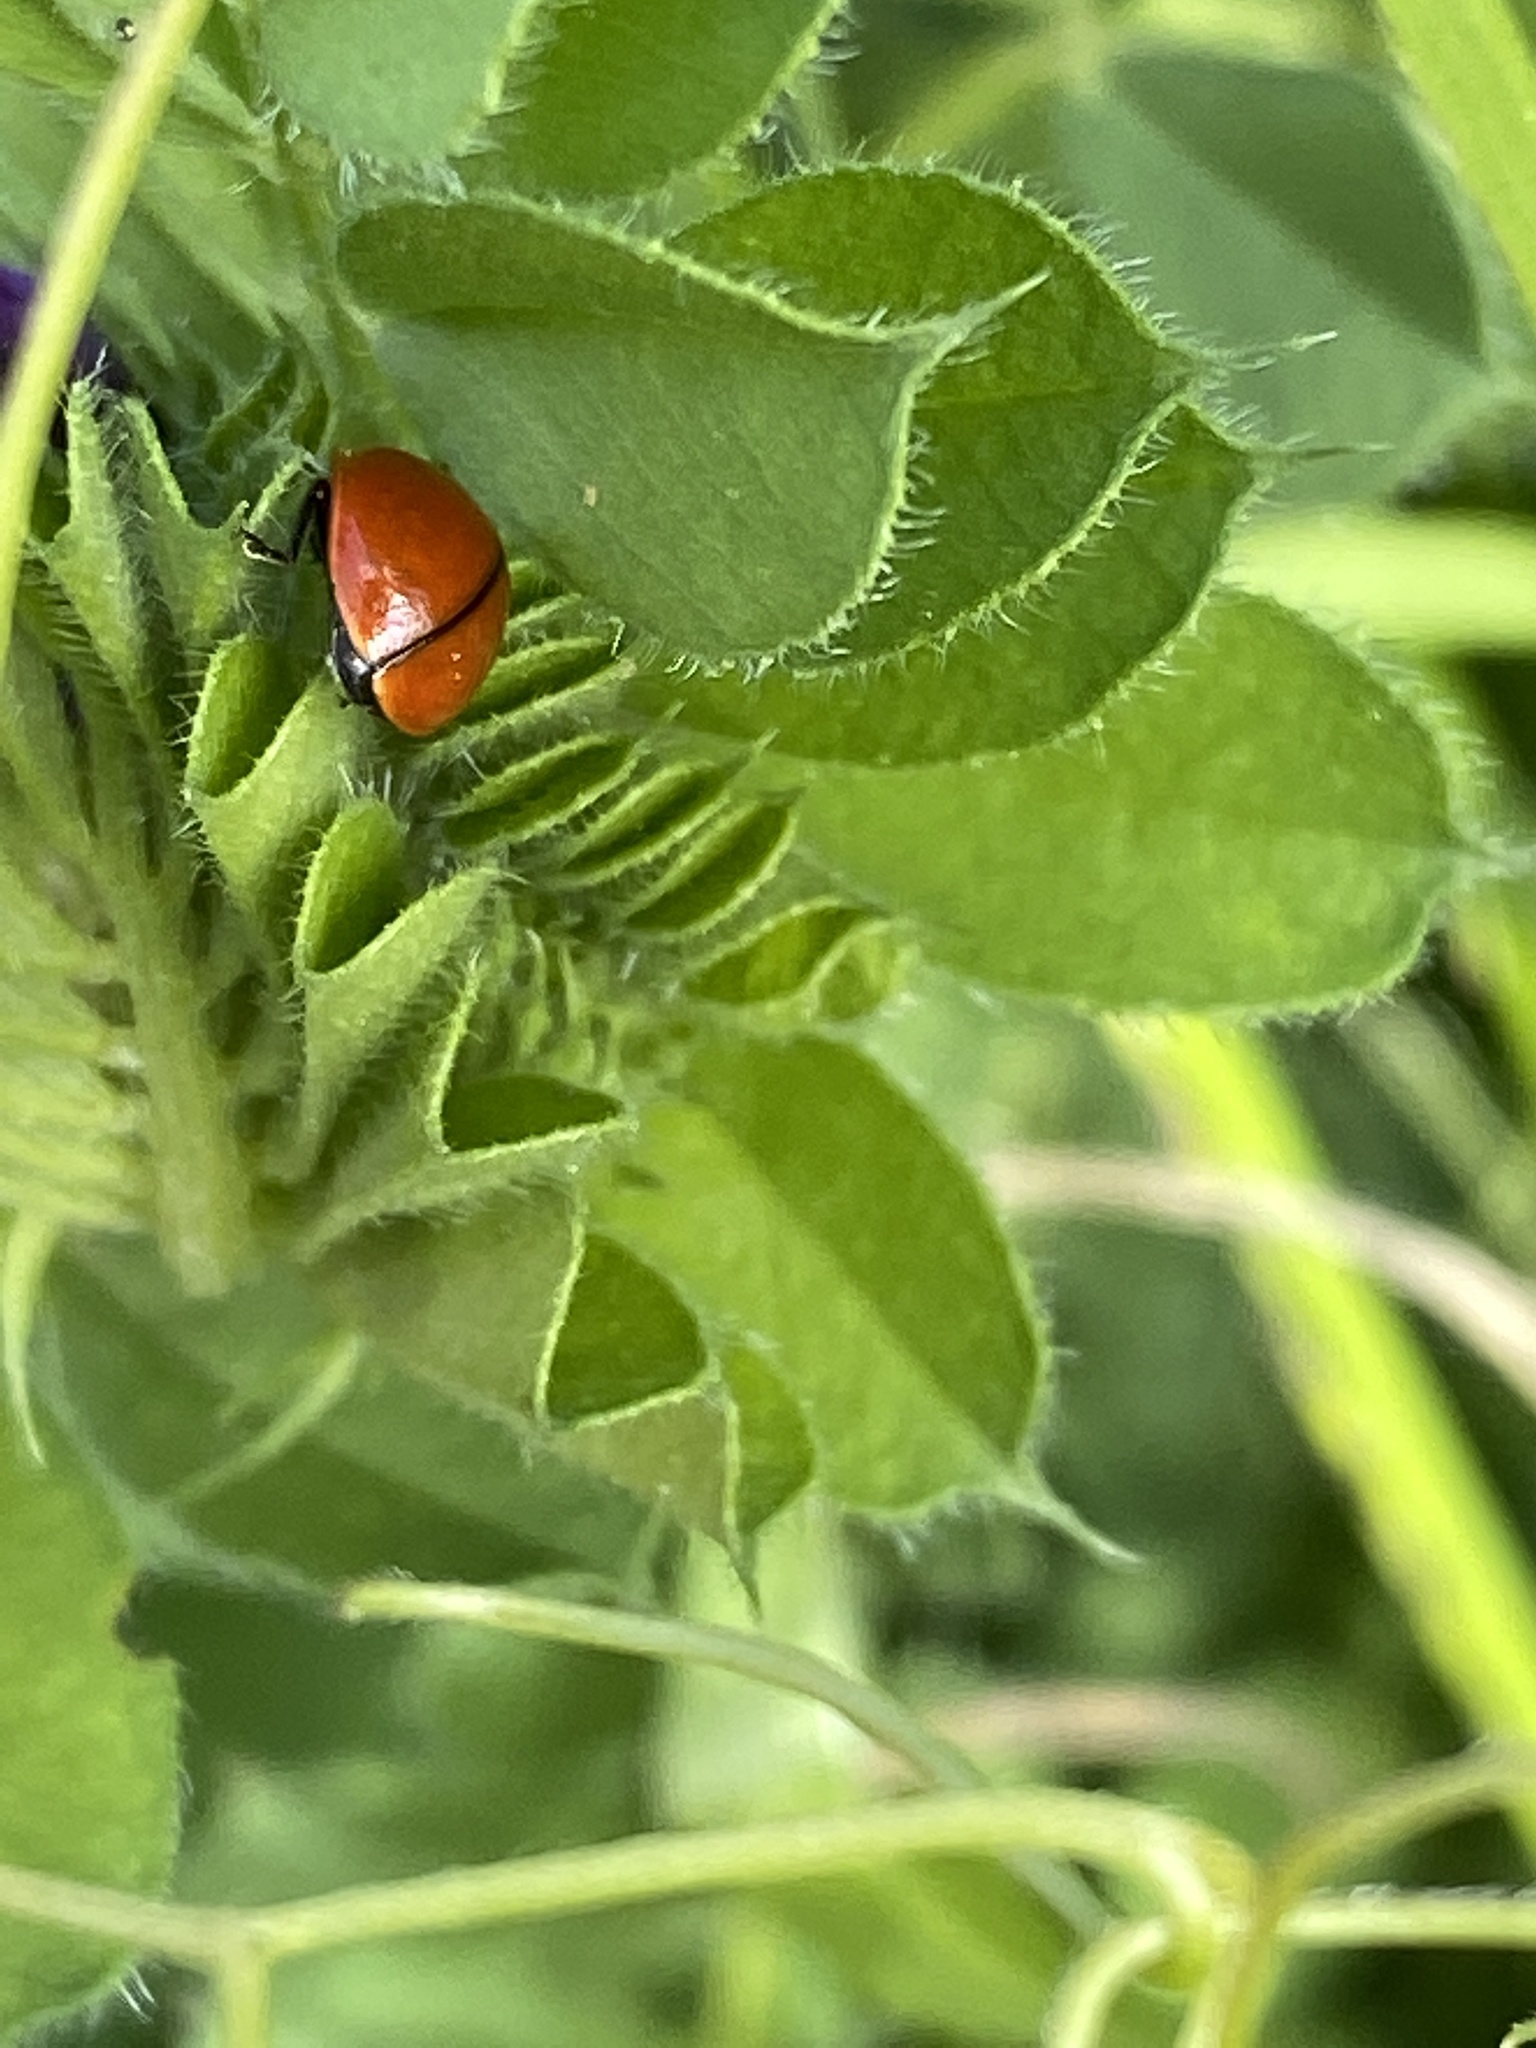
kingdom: Animalia
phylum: Arthropoda
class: Insecta
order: Coleoptera
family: Coccinellidae
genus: Coccinella
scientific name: Coccinella californica
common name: Lady beetle
